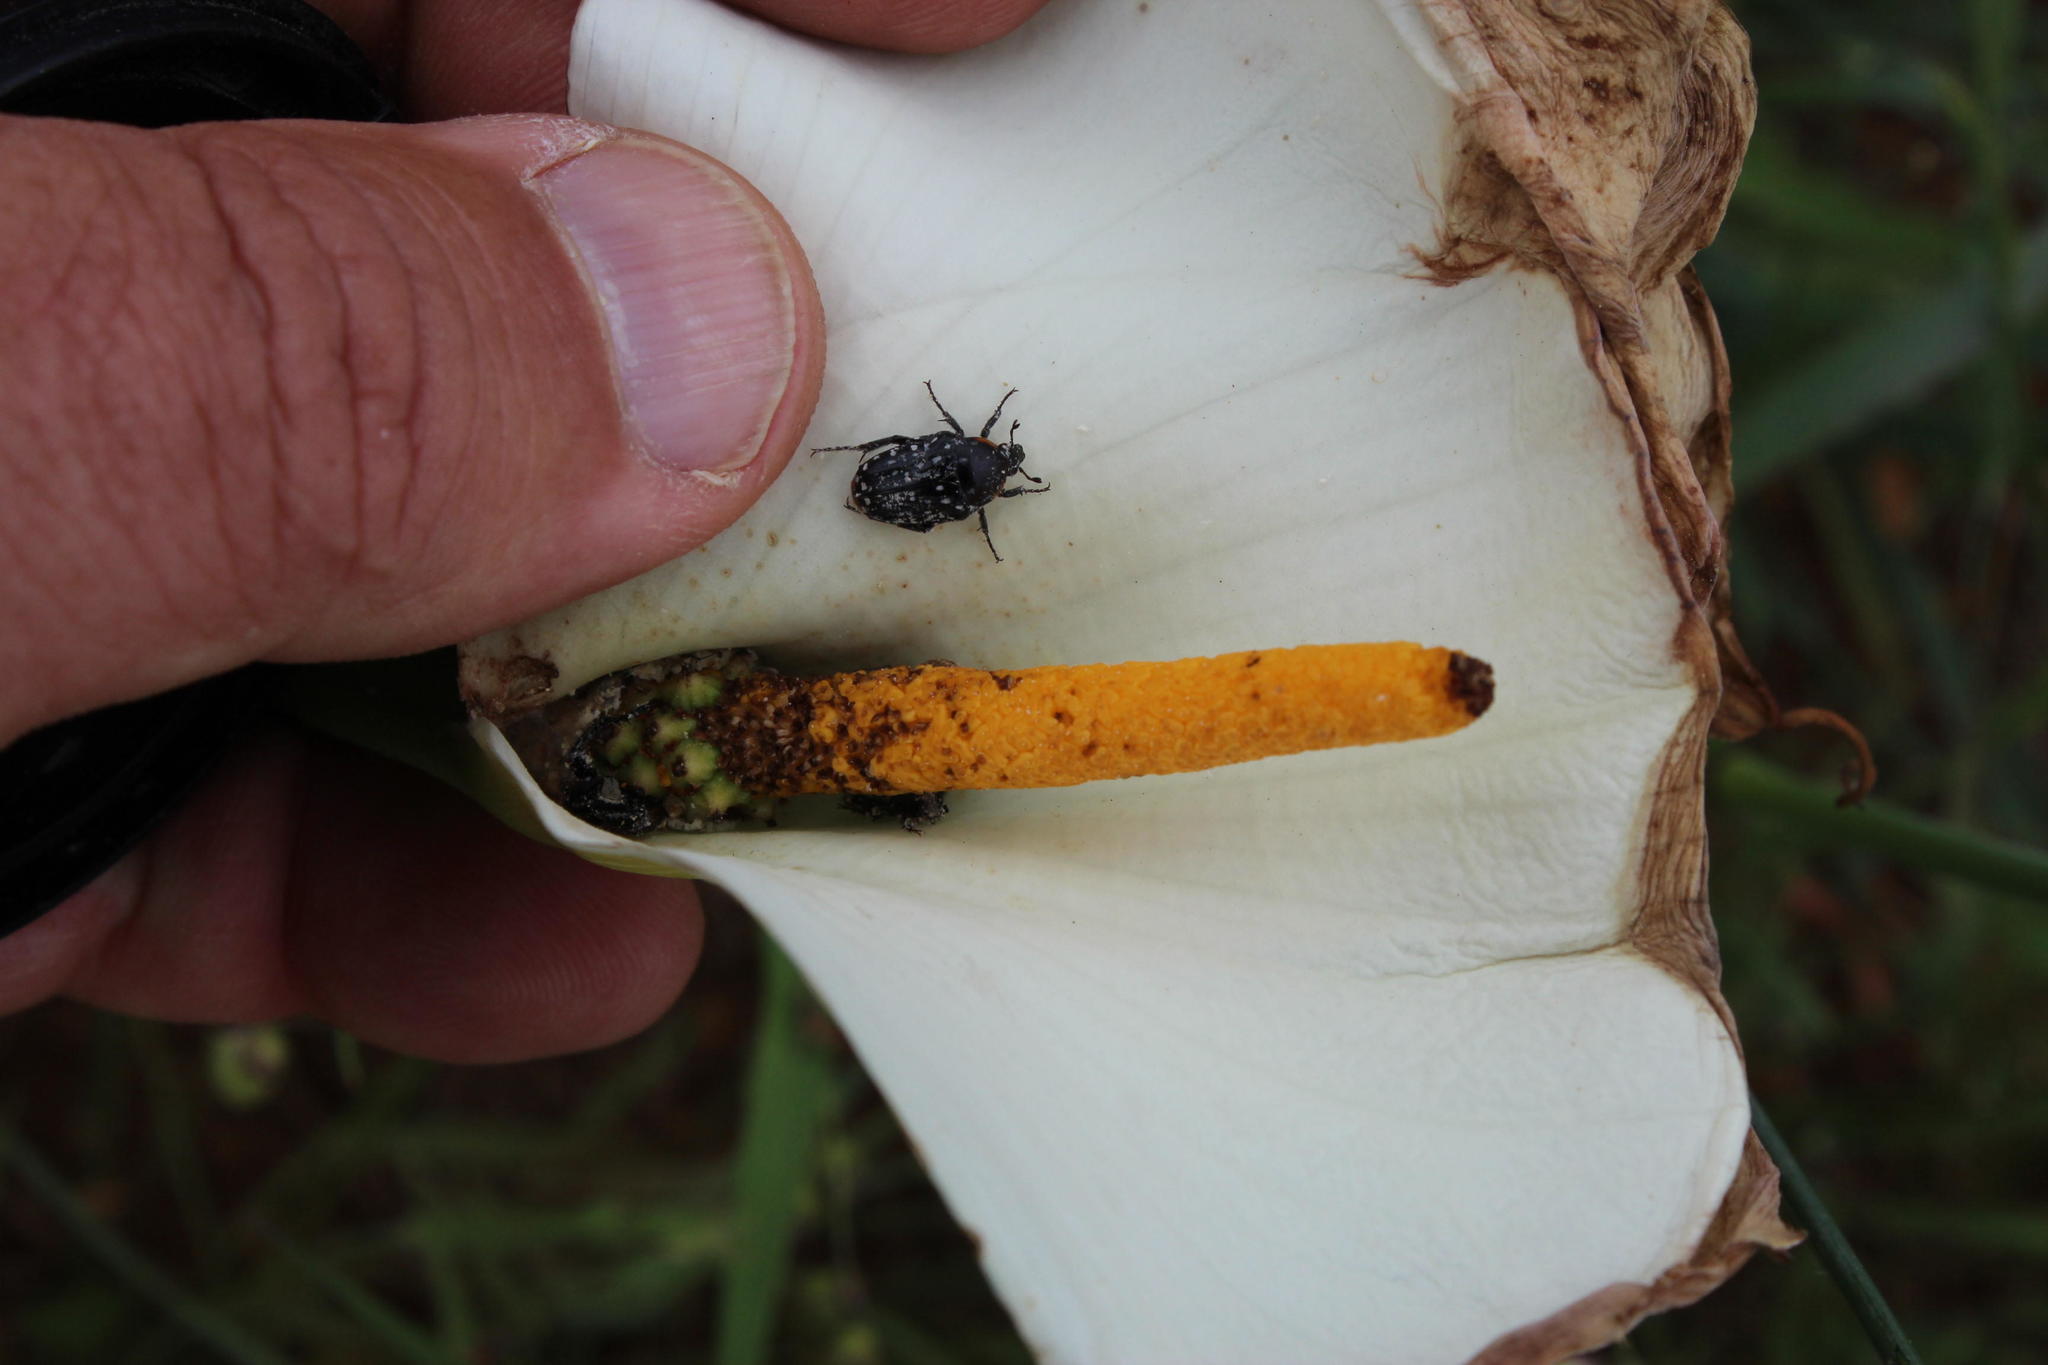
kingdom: Plantae
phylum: Tracheophyta
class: Liliopsida
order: Alismatales
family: Araceae
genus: Zantedeschia
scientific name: Zantedeschia aethiopica
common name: Altar-lily
